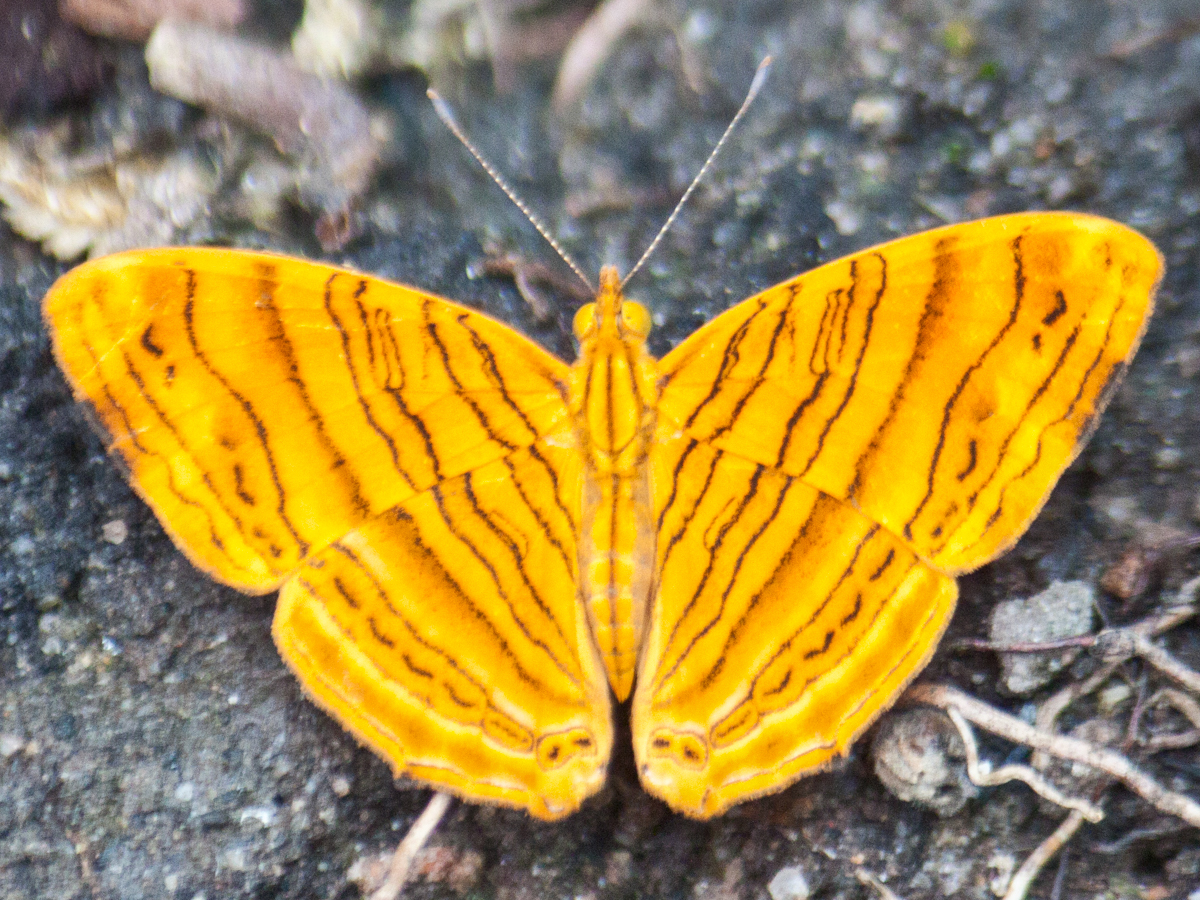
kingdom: Animalia
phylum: Arthropoda
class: Insecta
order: Lepidoptera
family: Nymphalidae
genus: Chersonesia
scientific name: Chersonesia intermedia
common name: Intermediate maplet
